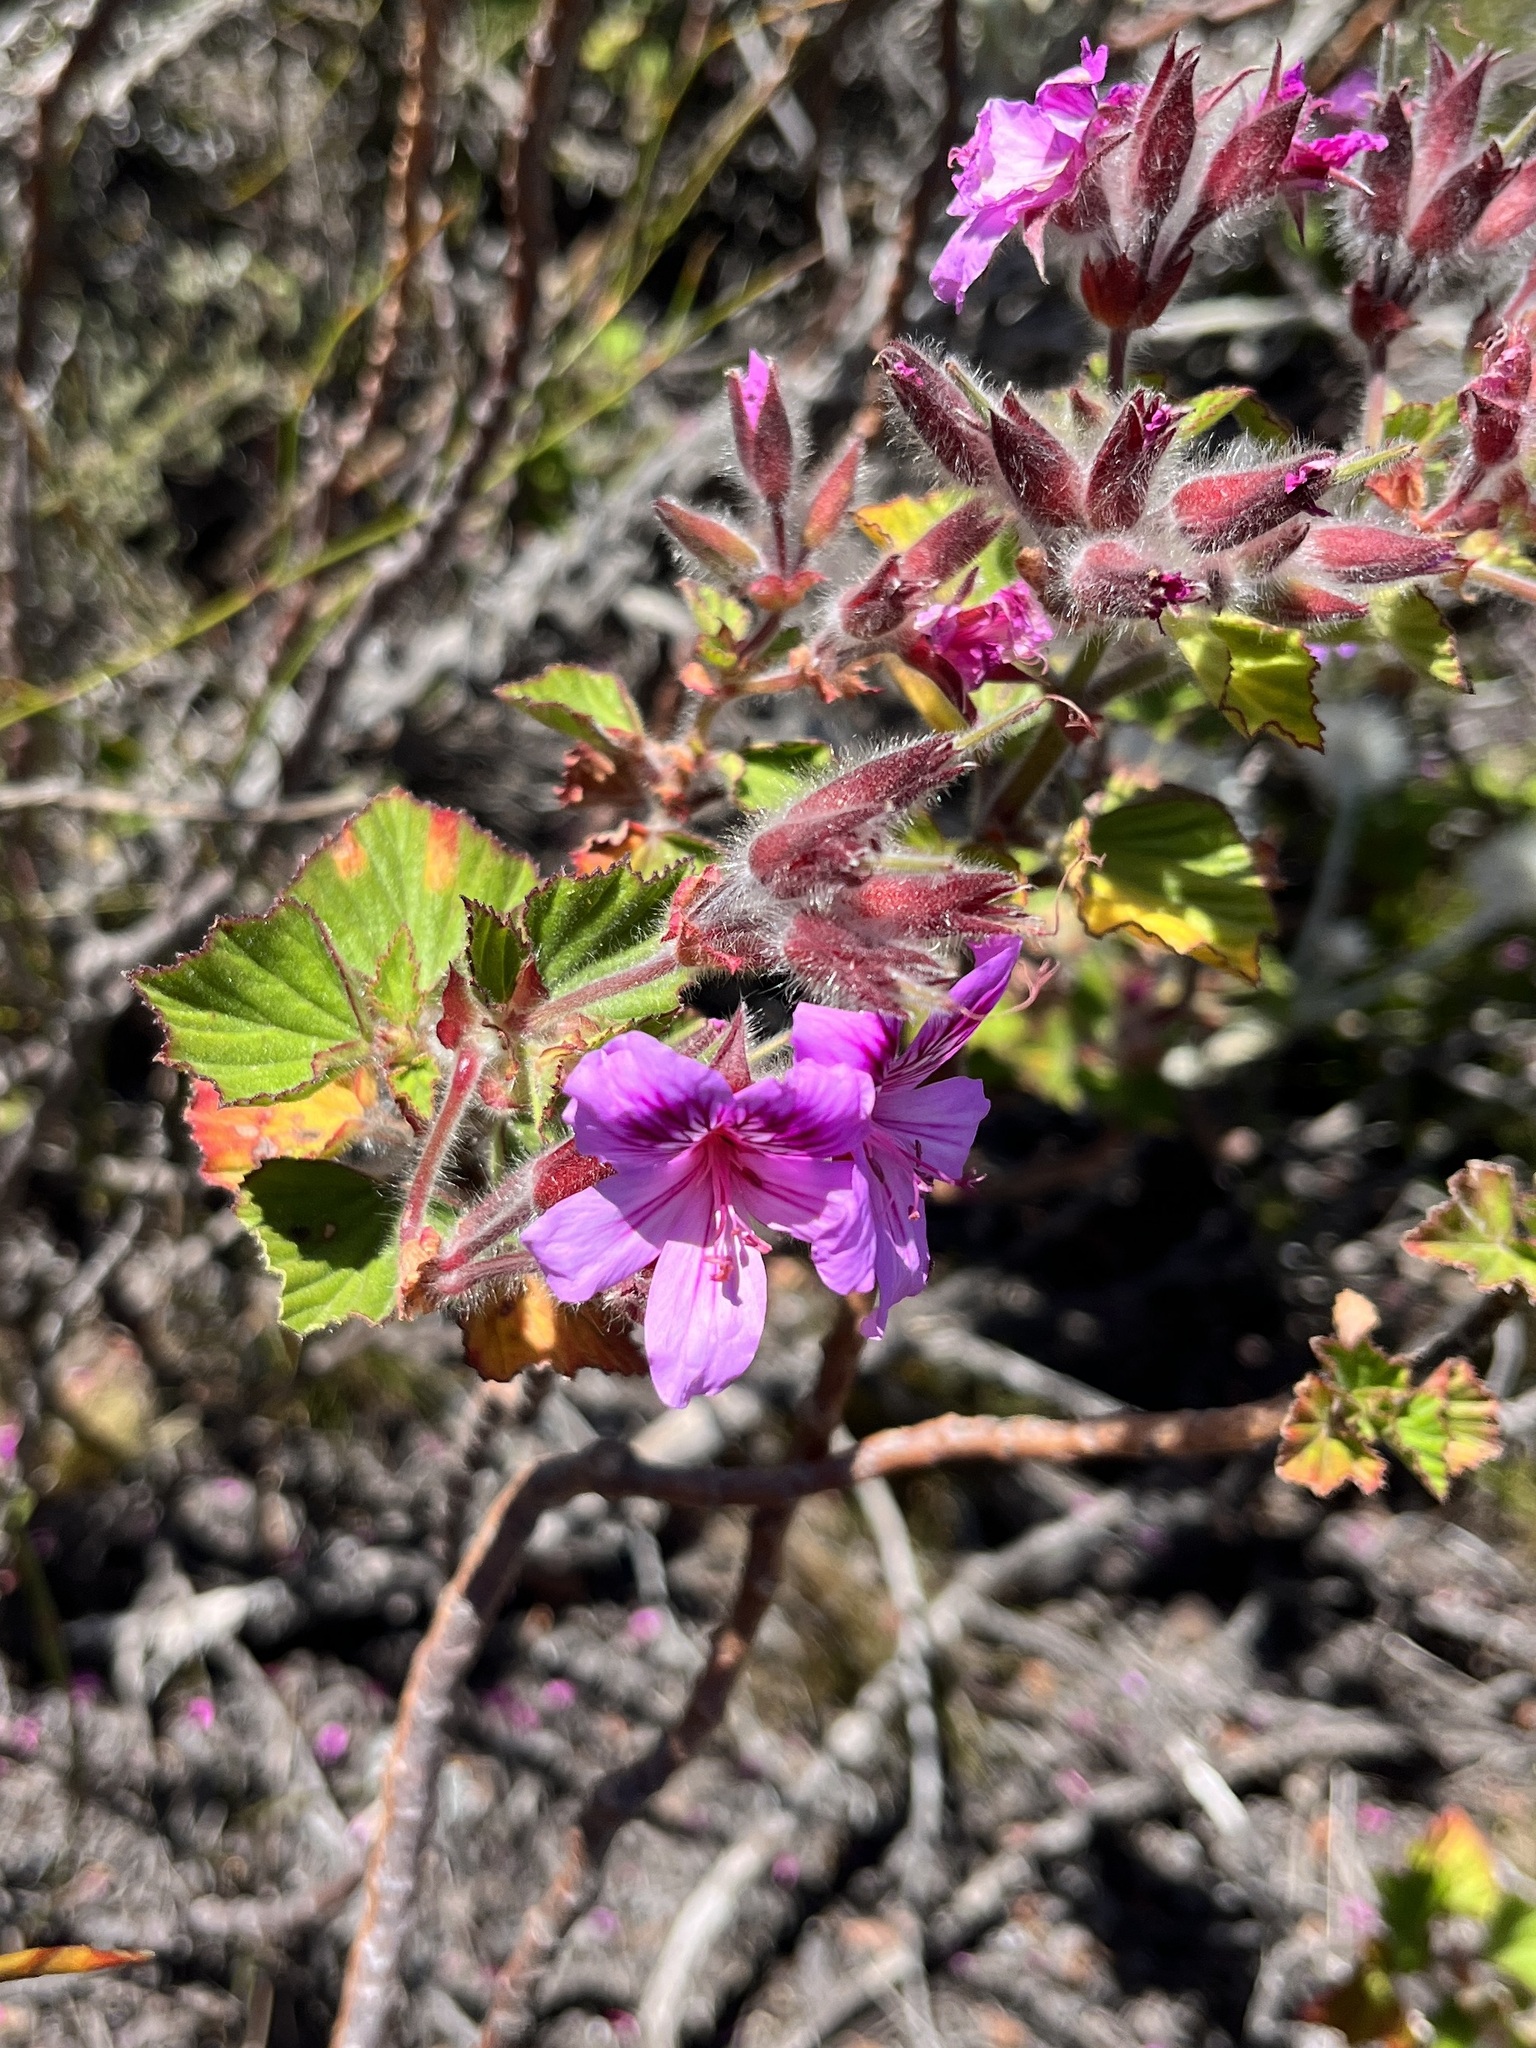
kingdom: Plantae
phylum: Tracheophyta
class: Magnoliopsida
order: Geraniales
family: Geraniaceae
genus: Pelargonium
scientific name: Pelargonium cucullatum
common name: Tree pelargonium
